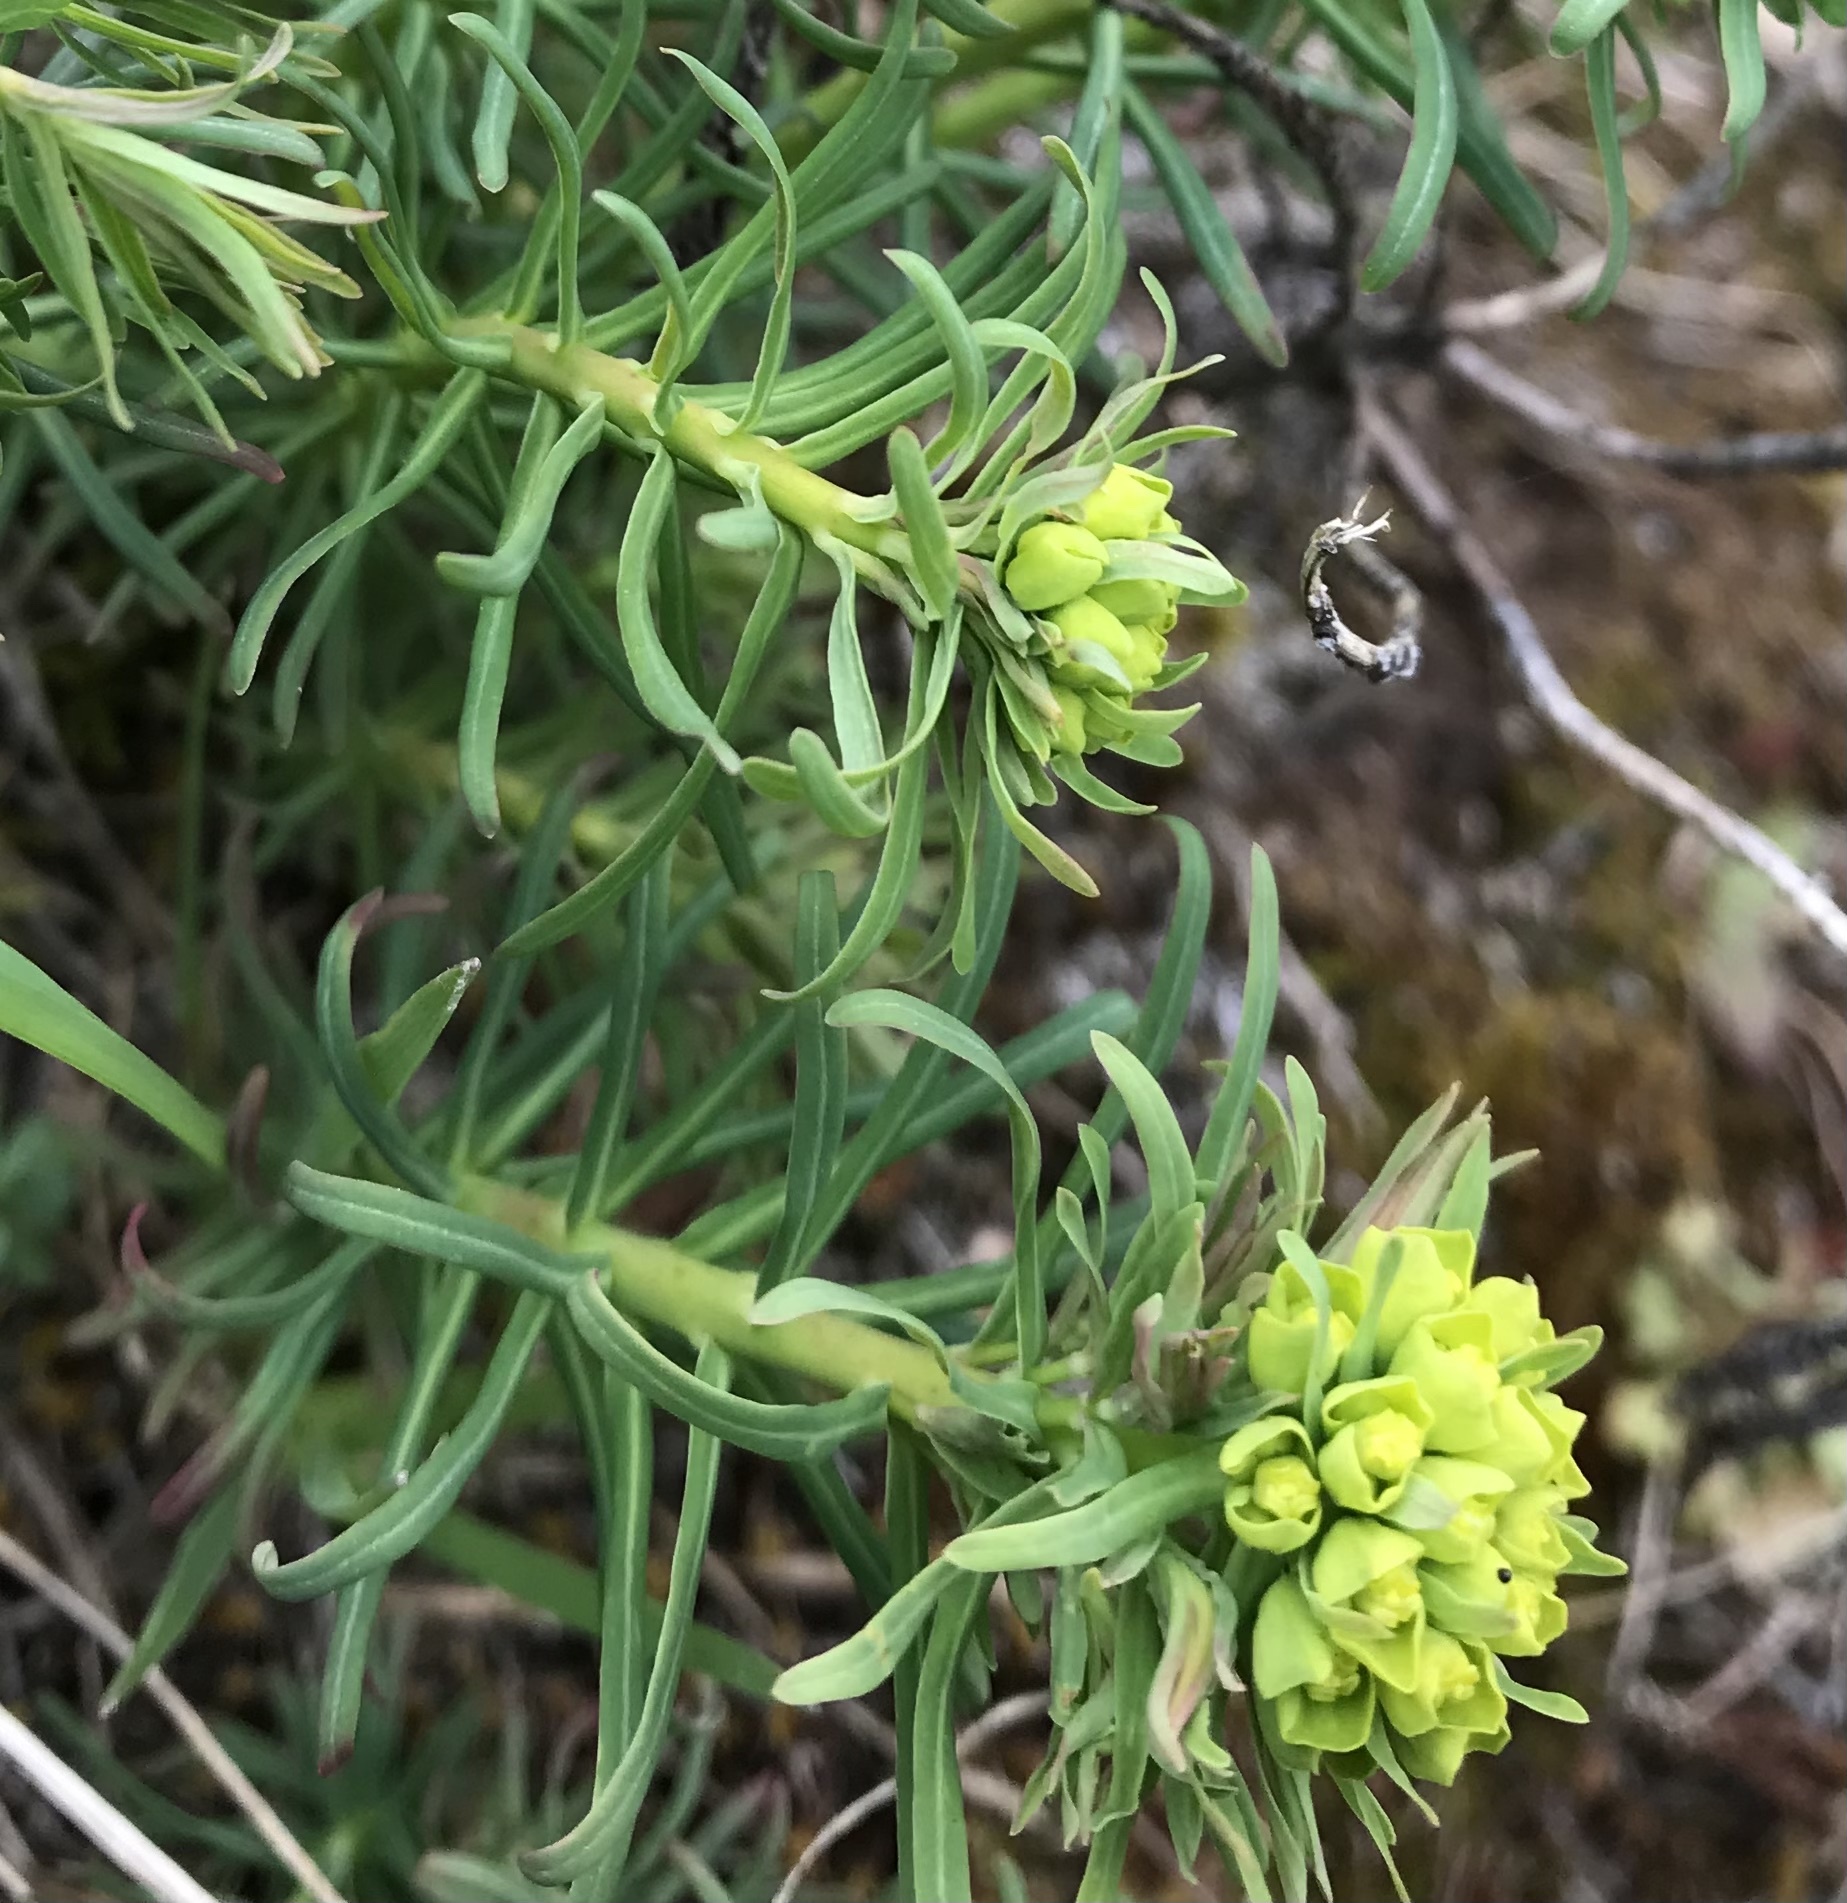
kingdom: Plantae
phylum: Tracheophyta
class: Magnoliopsida
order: Malpighiales
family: Euphorbiaceae
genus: Euphorbia
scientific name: Euphorbia cyparissias
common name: Cypress spurge
